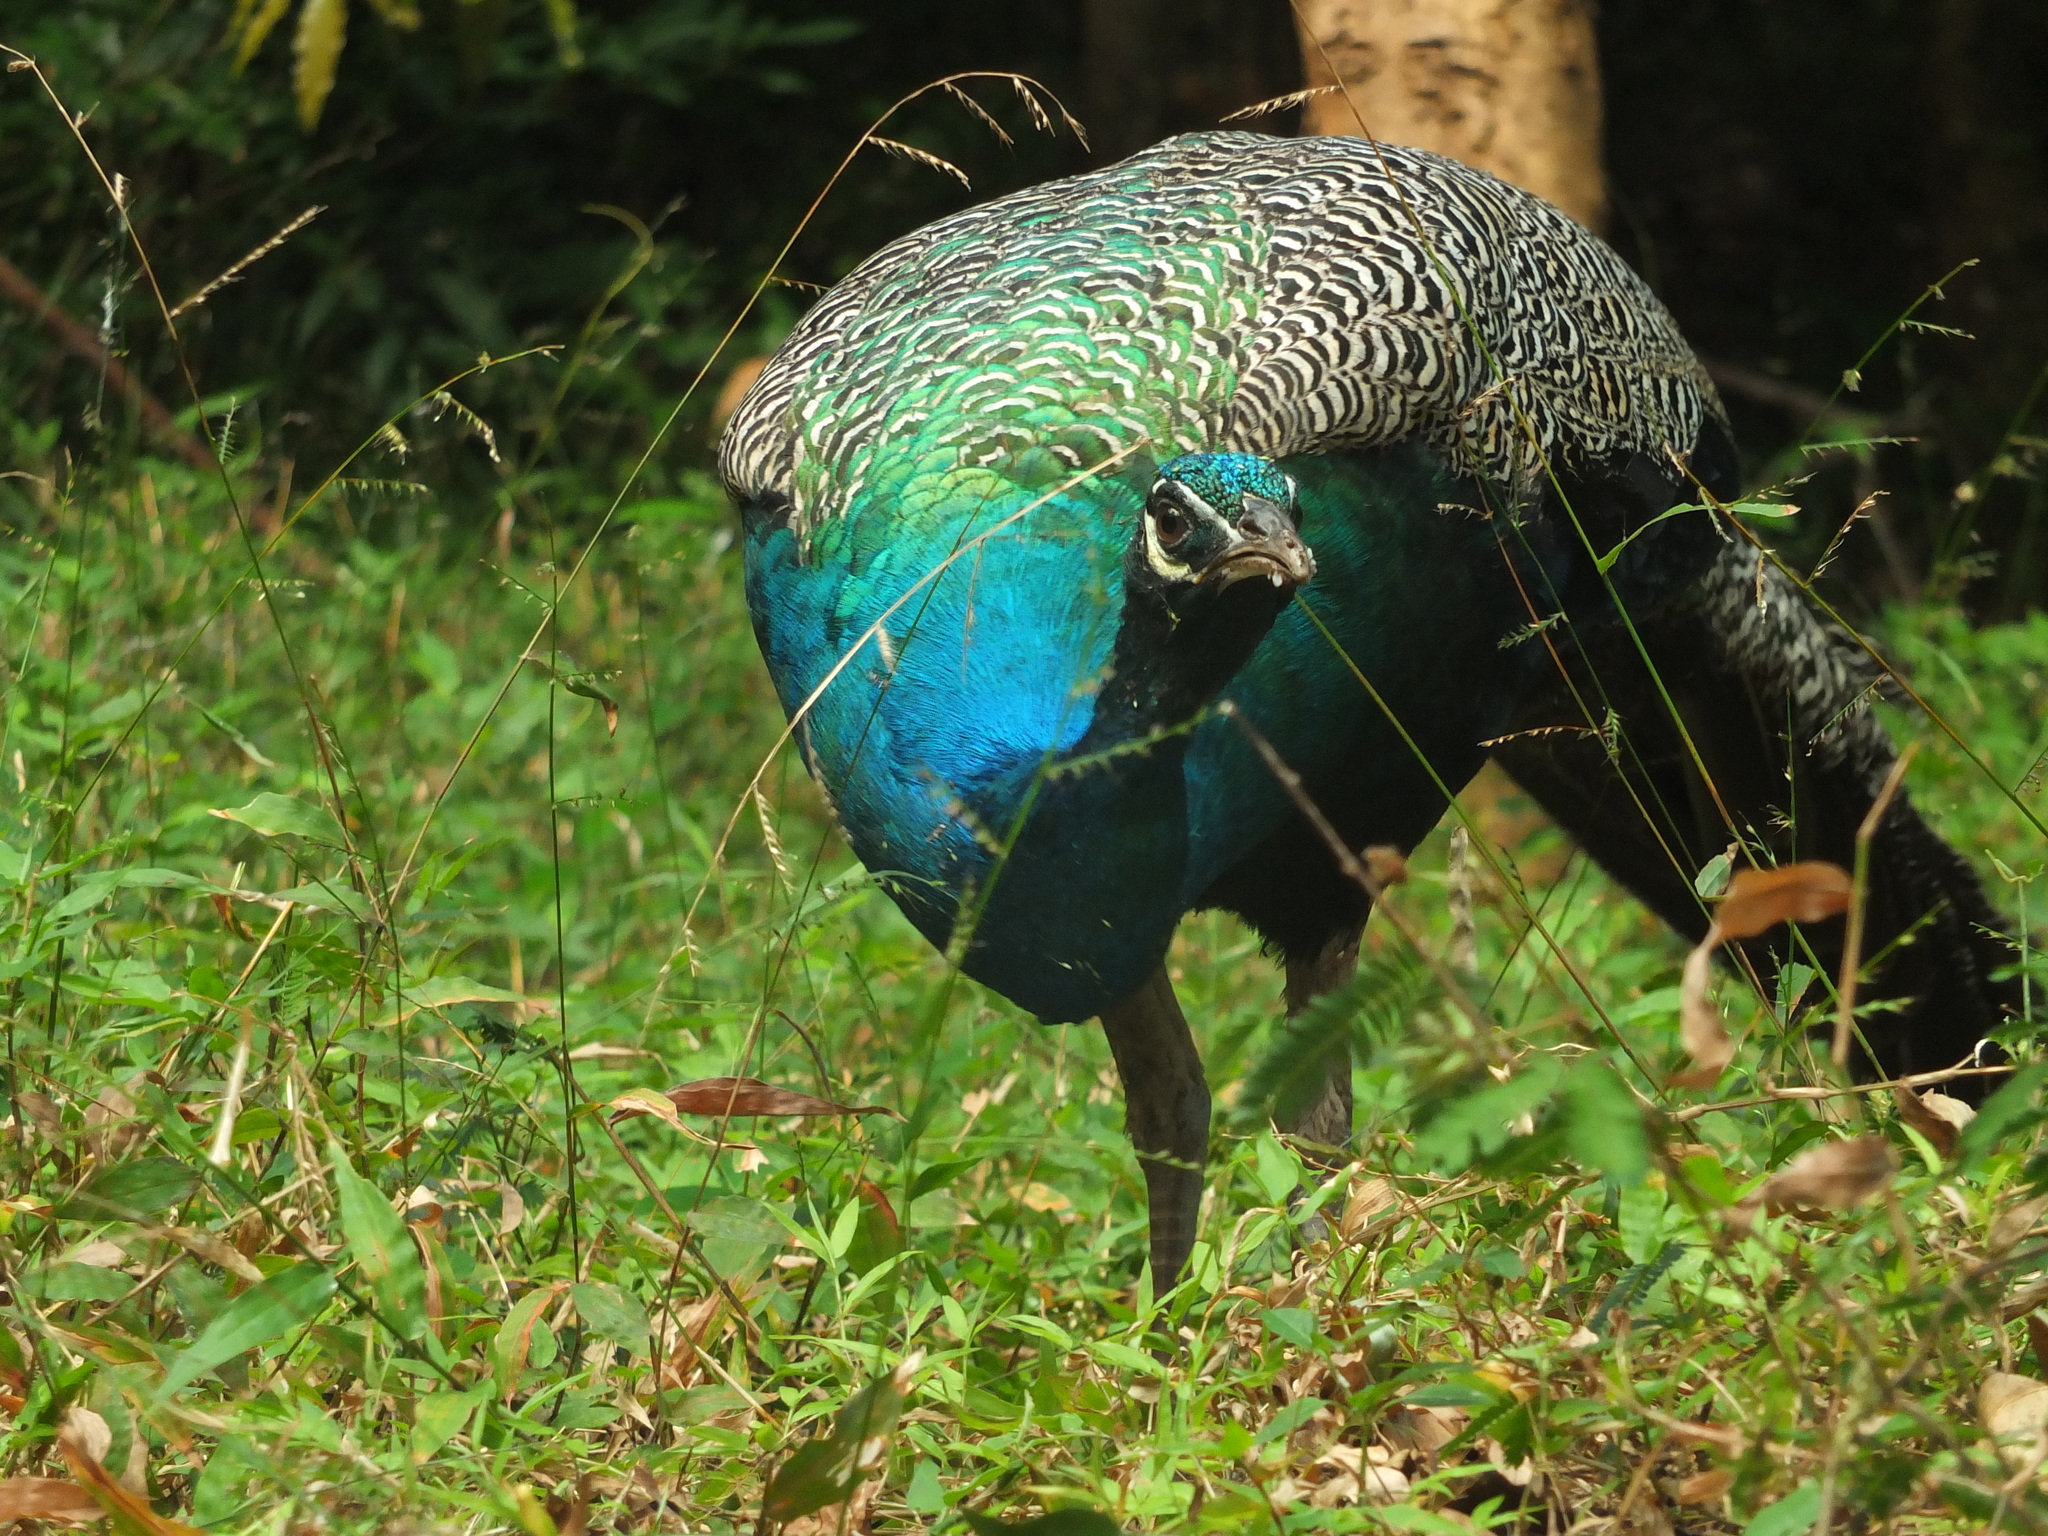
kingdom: Animalia
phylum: Chordata
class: Aves
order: Galliformes
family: Phasianidae
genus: Pavo
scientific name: Pavo cristatus
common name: Indian peafowl
